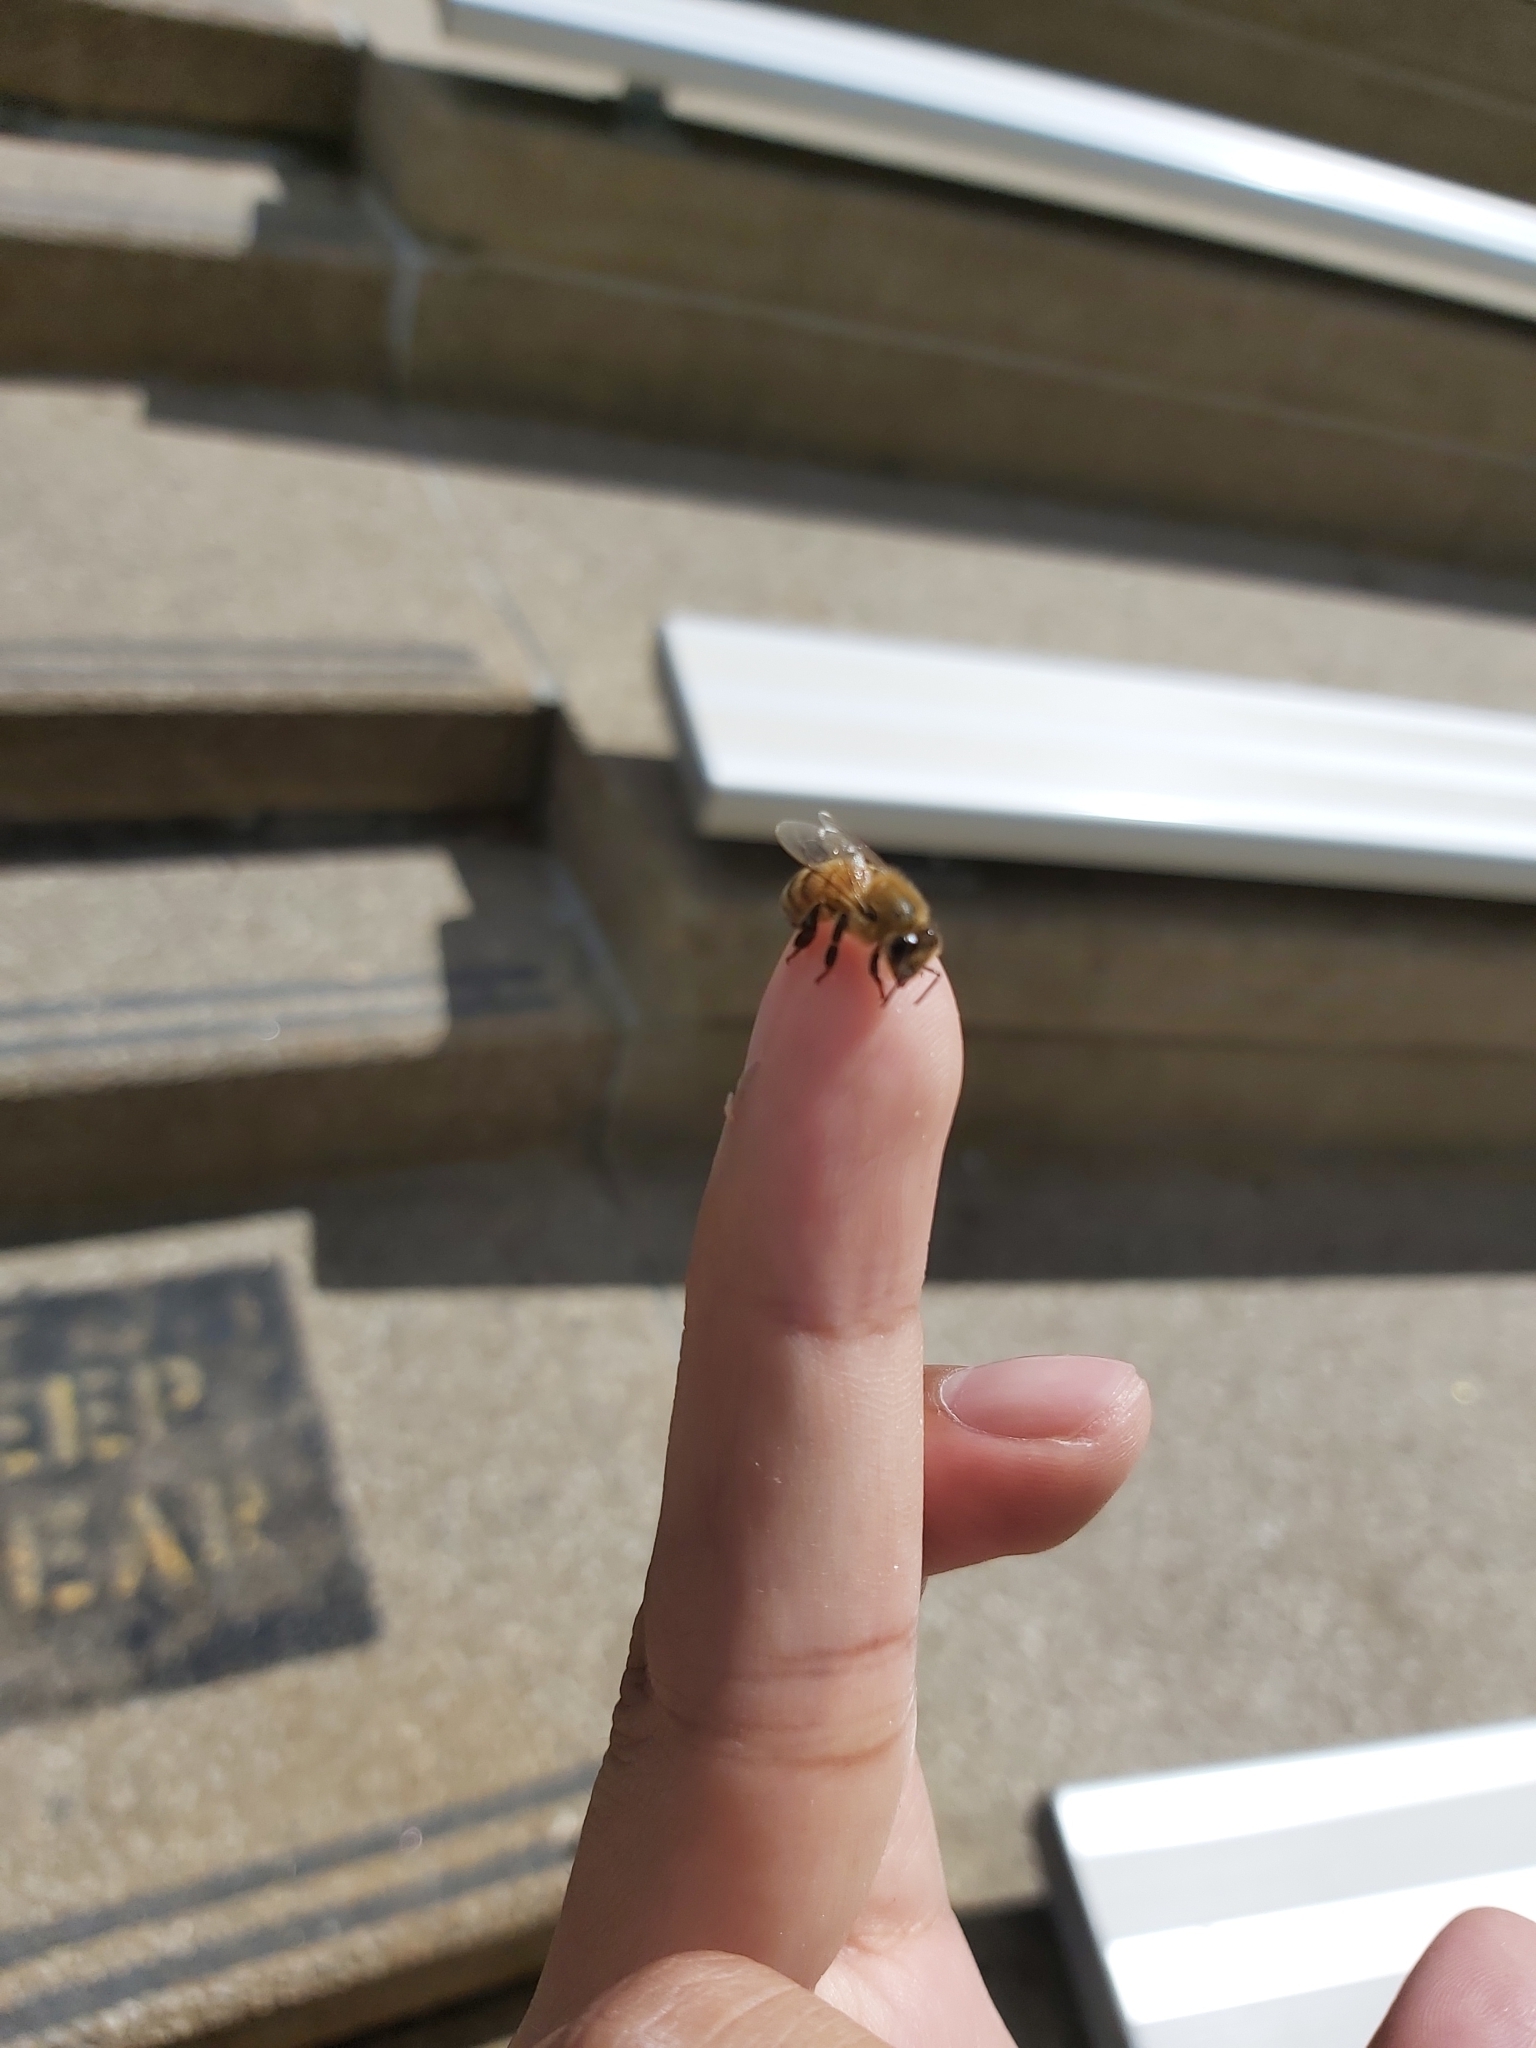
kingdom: Animalia
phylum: Arthropoda
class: Insecta
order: Hymenoptera
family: Apidae
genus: Apis
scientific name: Apis mellifera
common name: Honey bee
